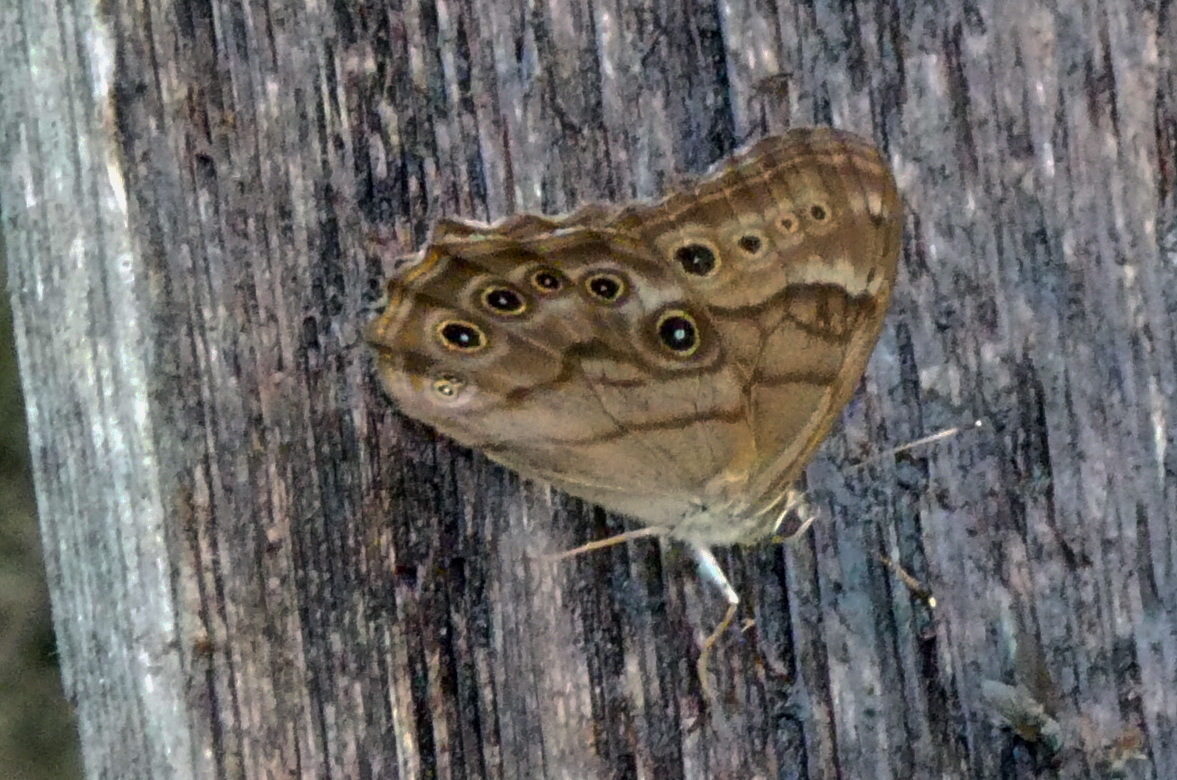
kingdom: Animalia
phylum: Arthropoda
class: Insecta
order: Lepidoptera
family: Nymphalidae
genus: Lethe
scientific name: Lethe anthedon
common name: Northern pearly-eye
